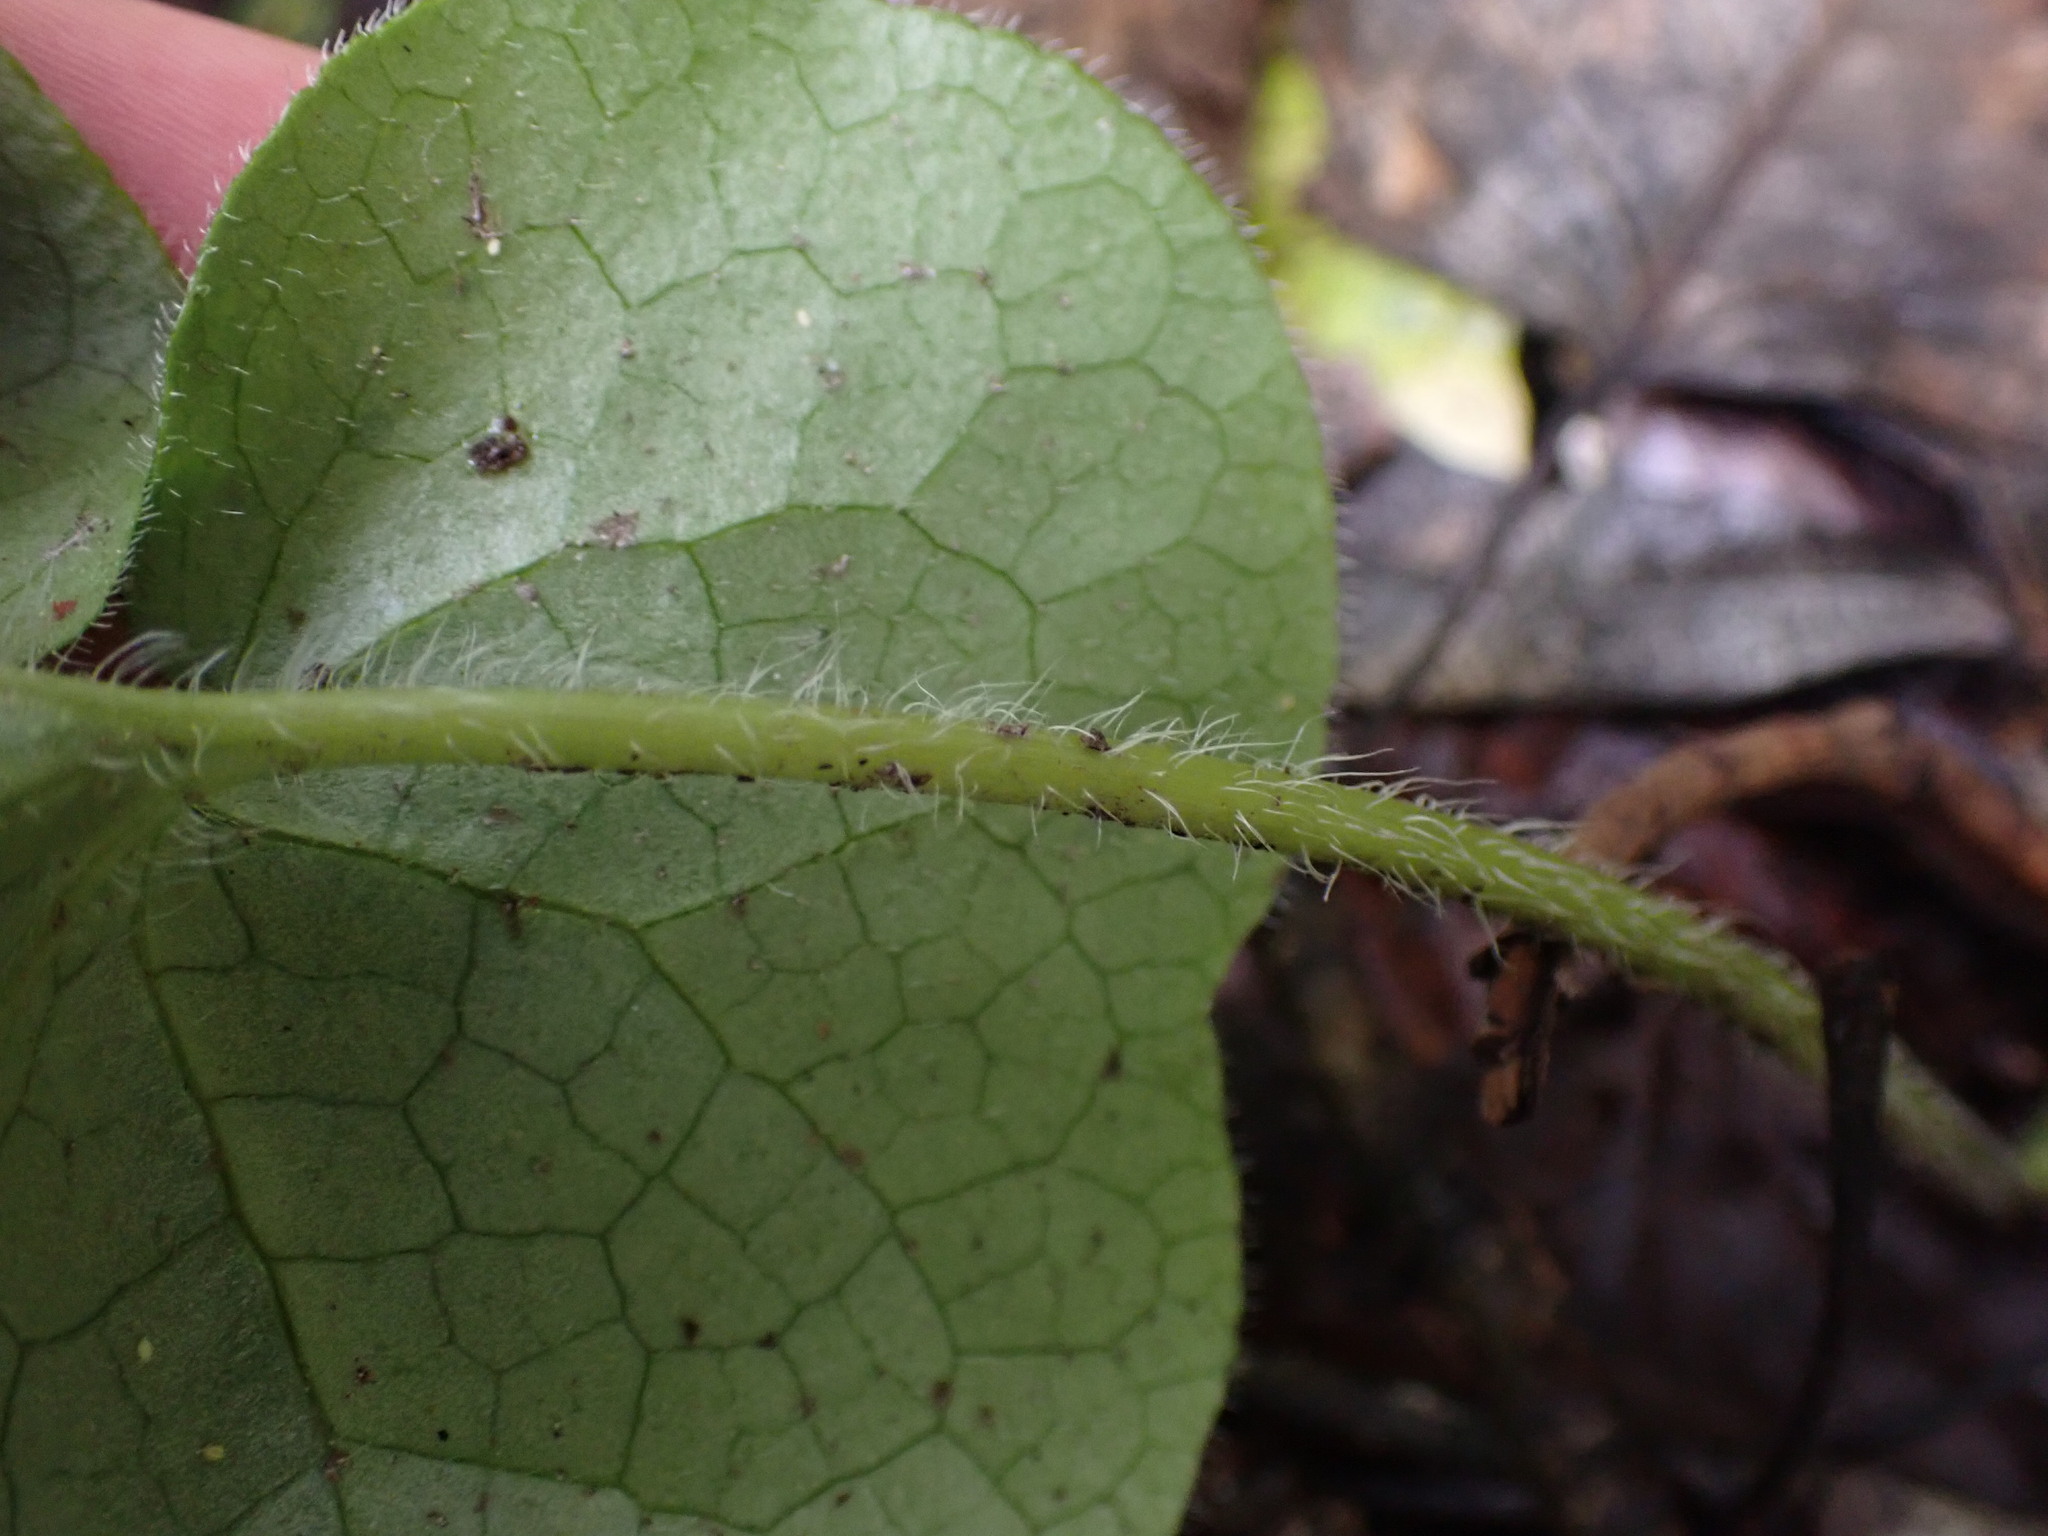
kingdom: Plantae
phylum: Tracheophyta
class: Magnoliopsida
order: Piperales
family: Aristolochiaceae
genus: Asarum
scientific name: Asarum caudatum
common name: Wild ginger
